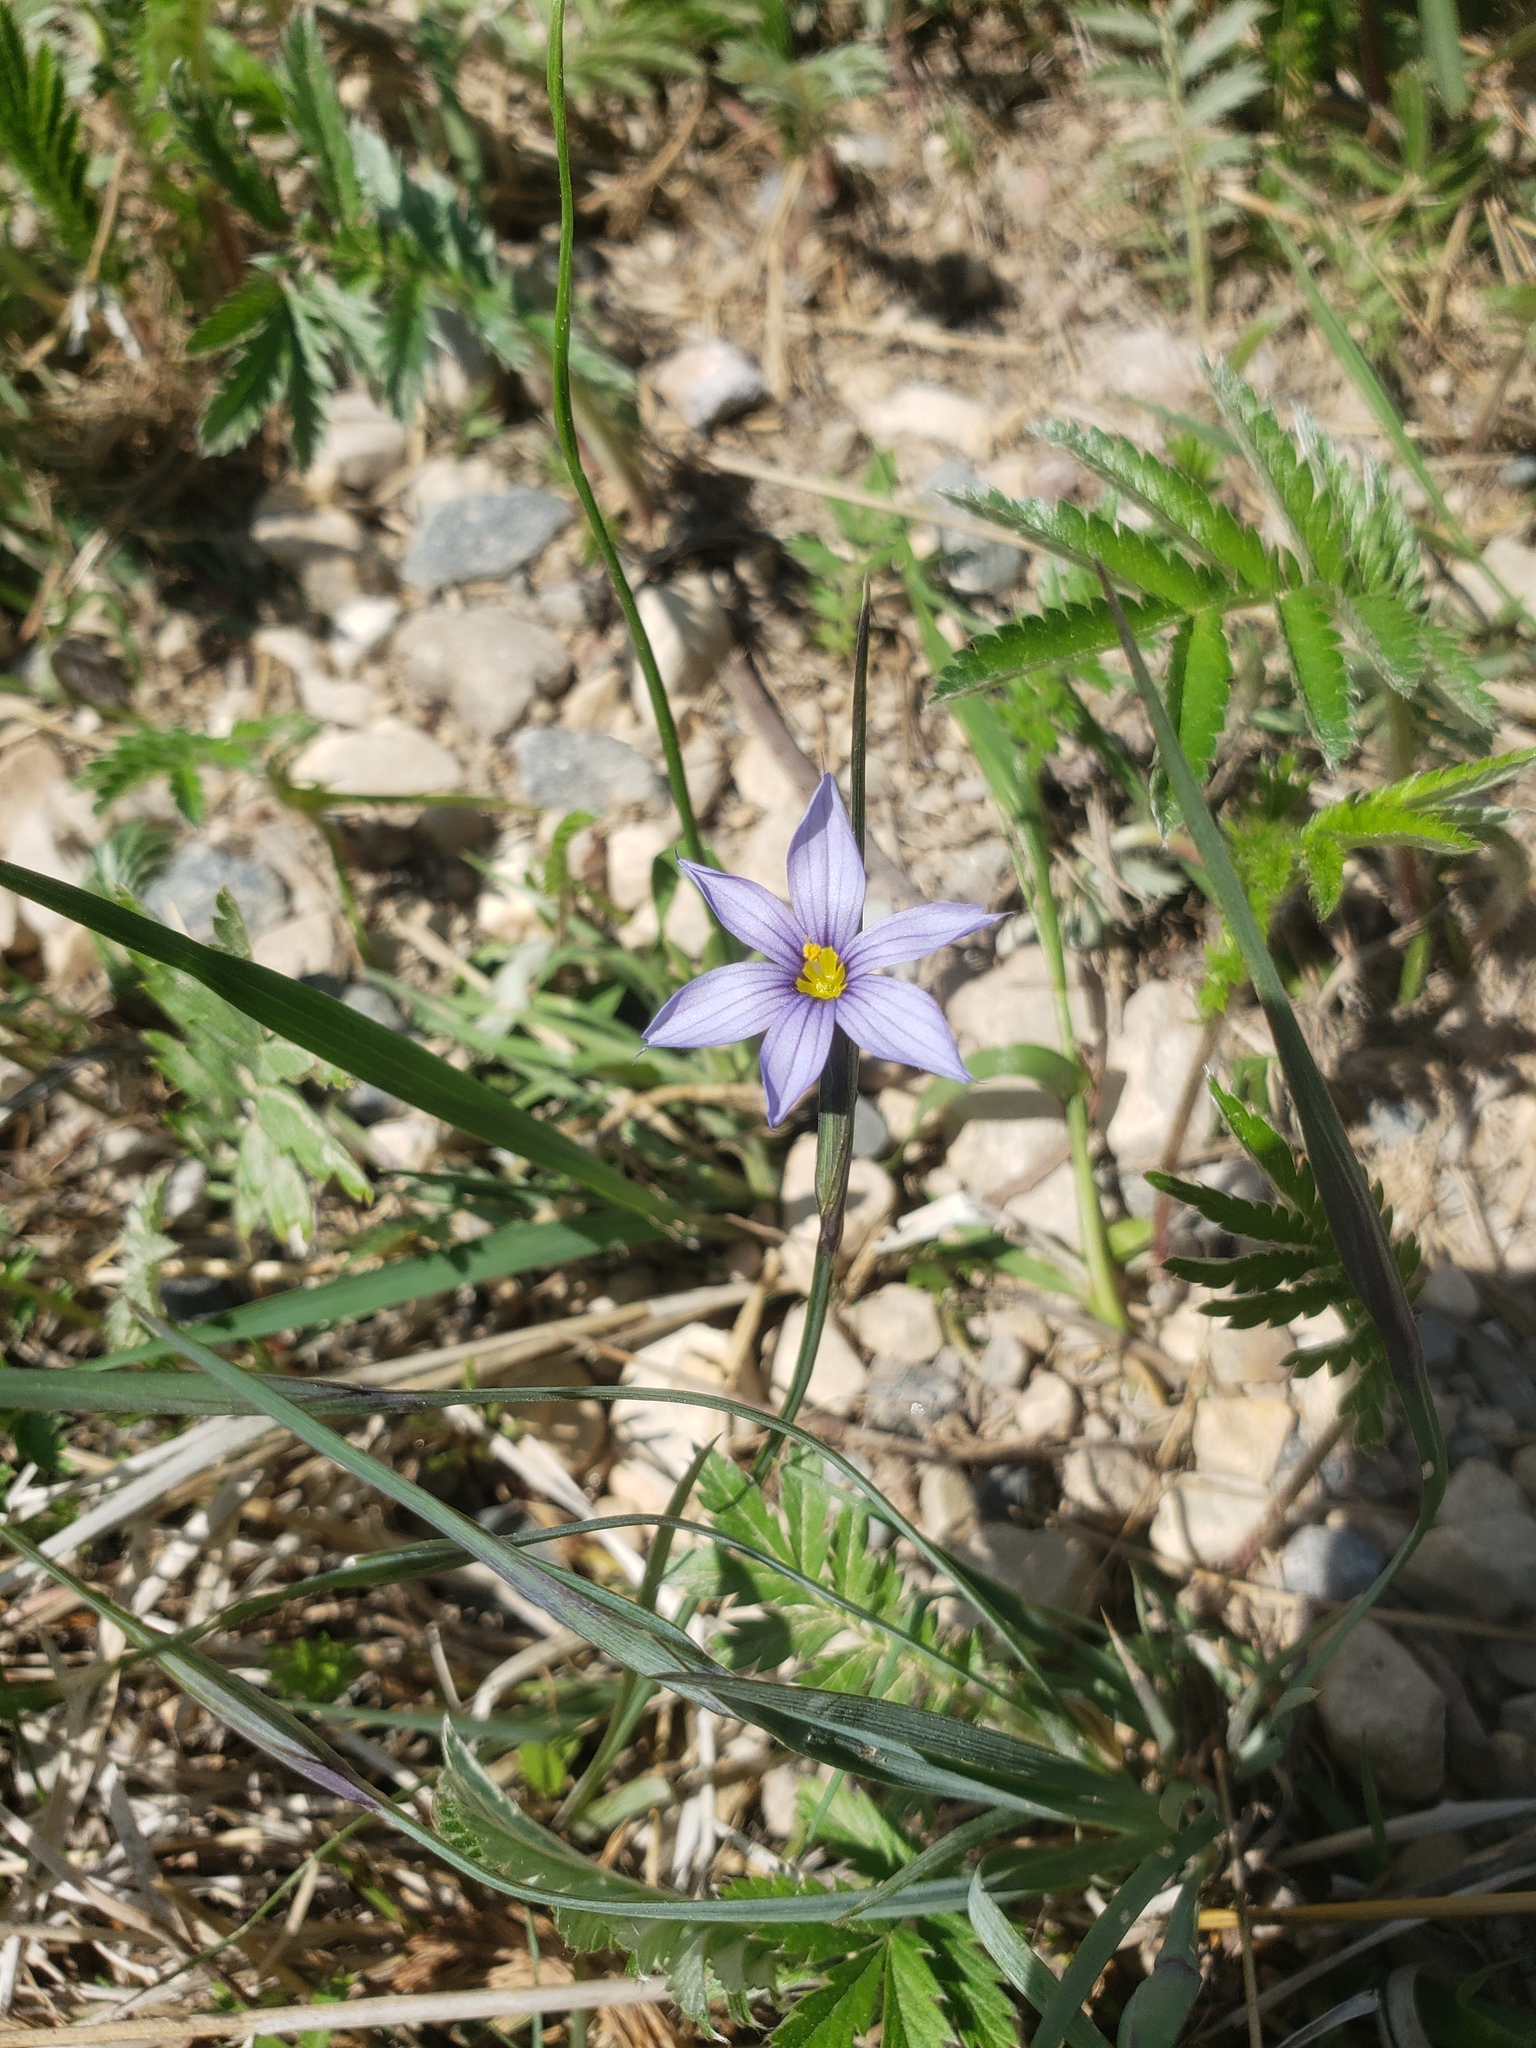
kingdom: Plantae
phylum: Tracheophyta
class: Liliopsida
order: Asparagales
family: Iridaceae
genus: Sisyrinchium
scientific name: Sisyrinchium montanum
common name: American blue-eyed-grass
